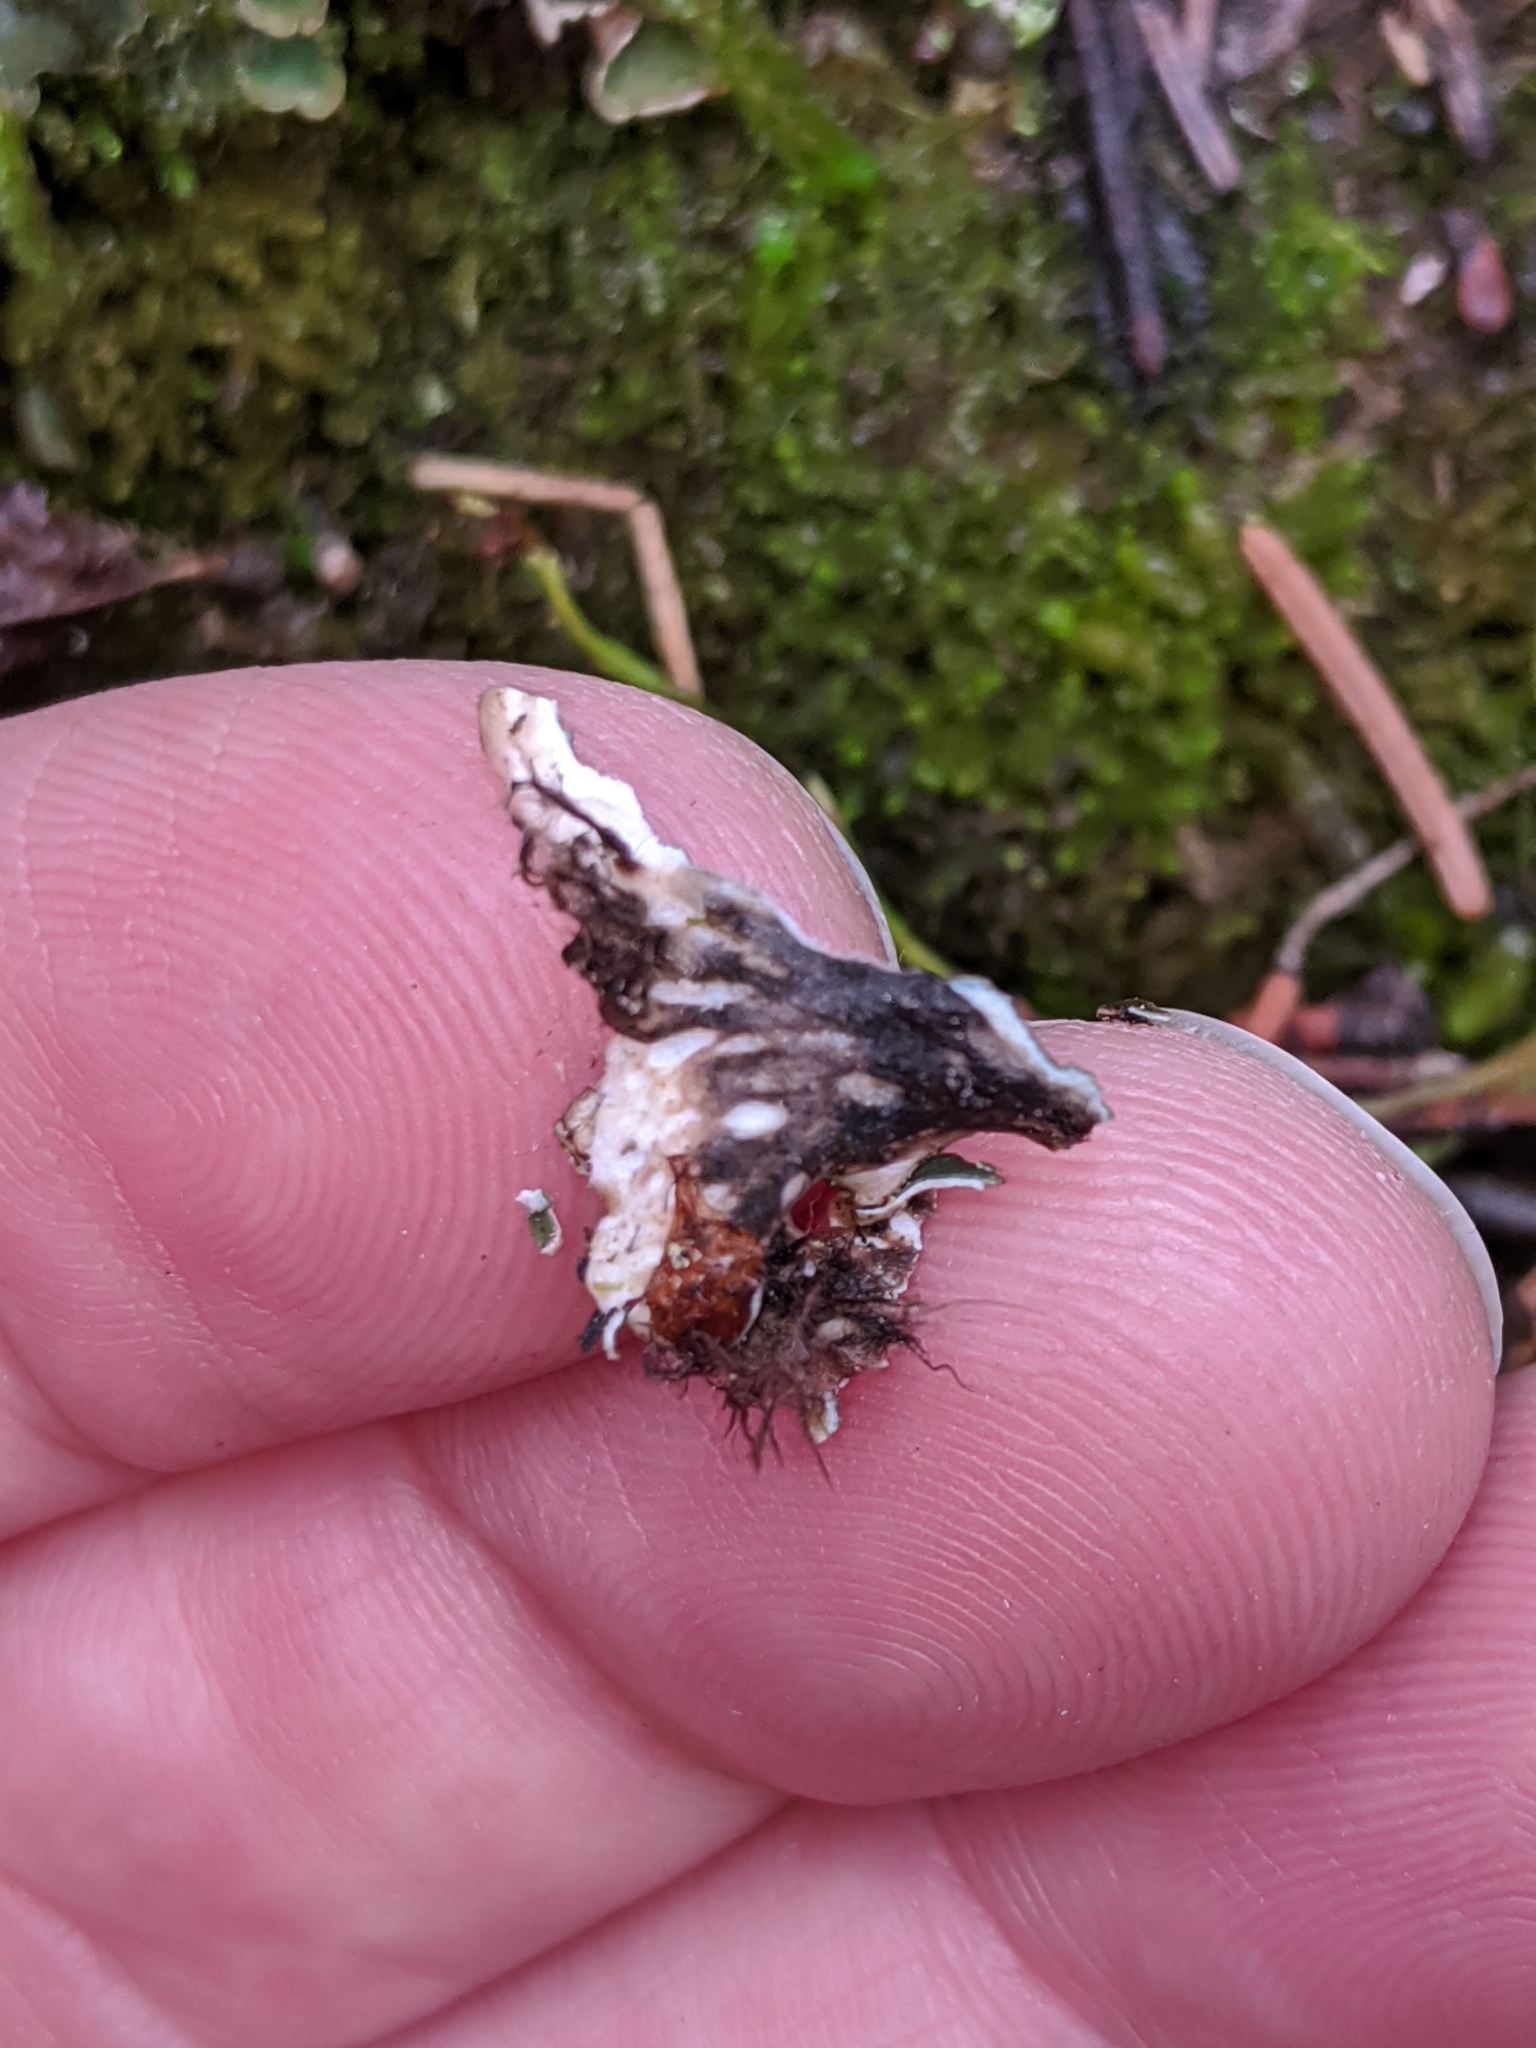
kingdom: Fungi
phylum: Ascomycota
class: Lecanoromycetes
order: Peltigerales
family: Peltigeraceae
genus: Peltigera
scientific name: Peltigera malacea
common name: Matt felt lichen
